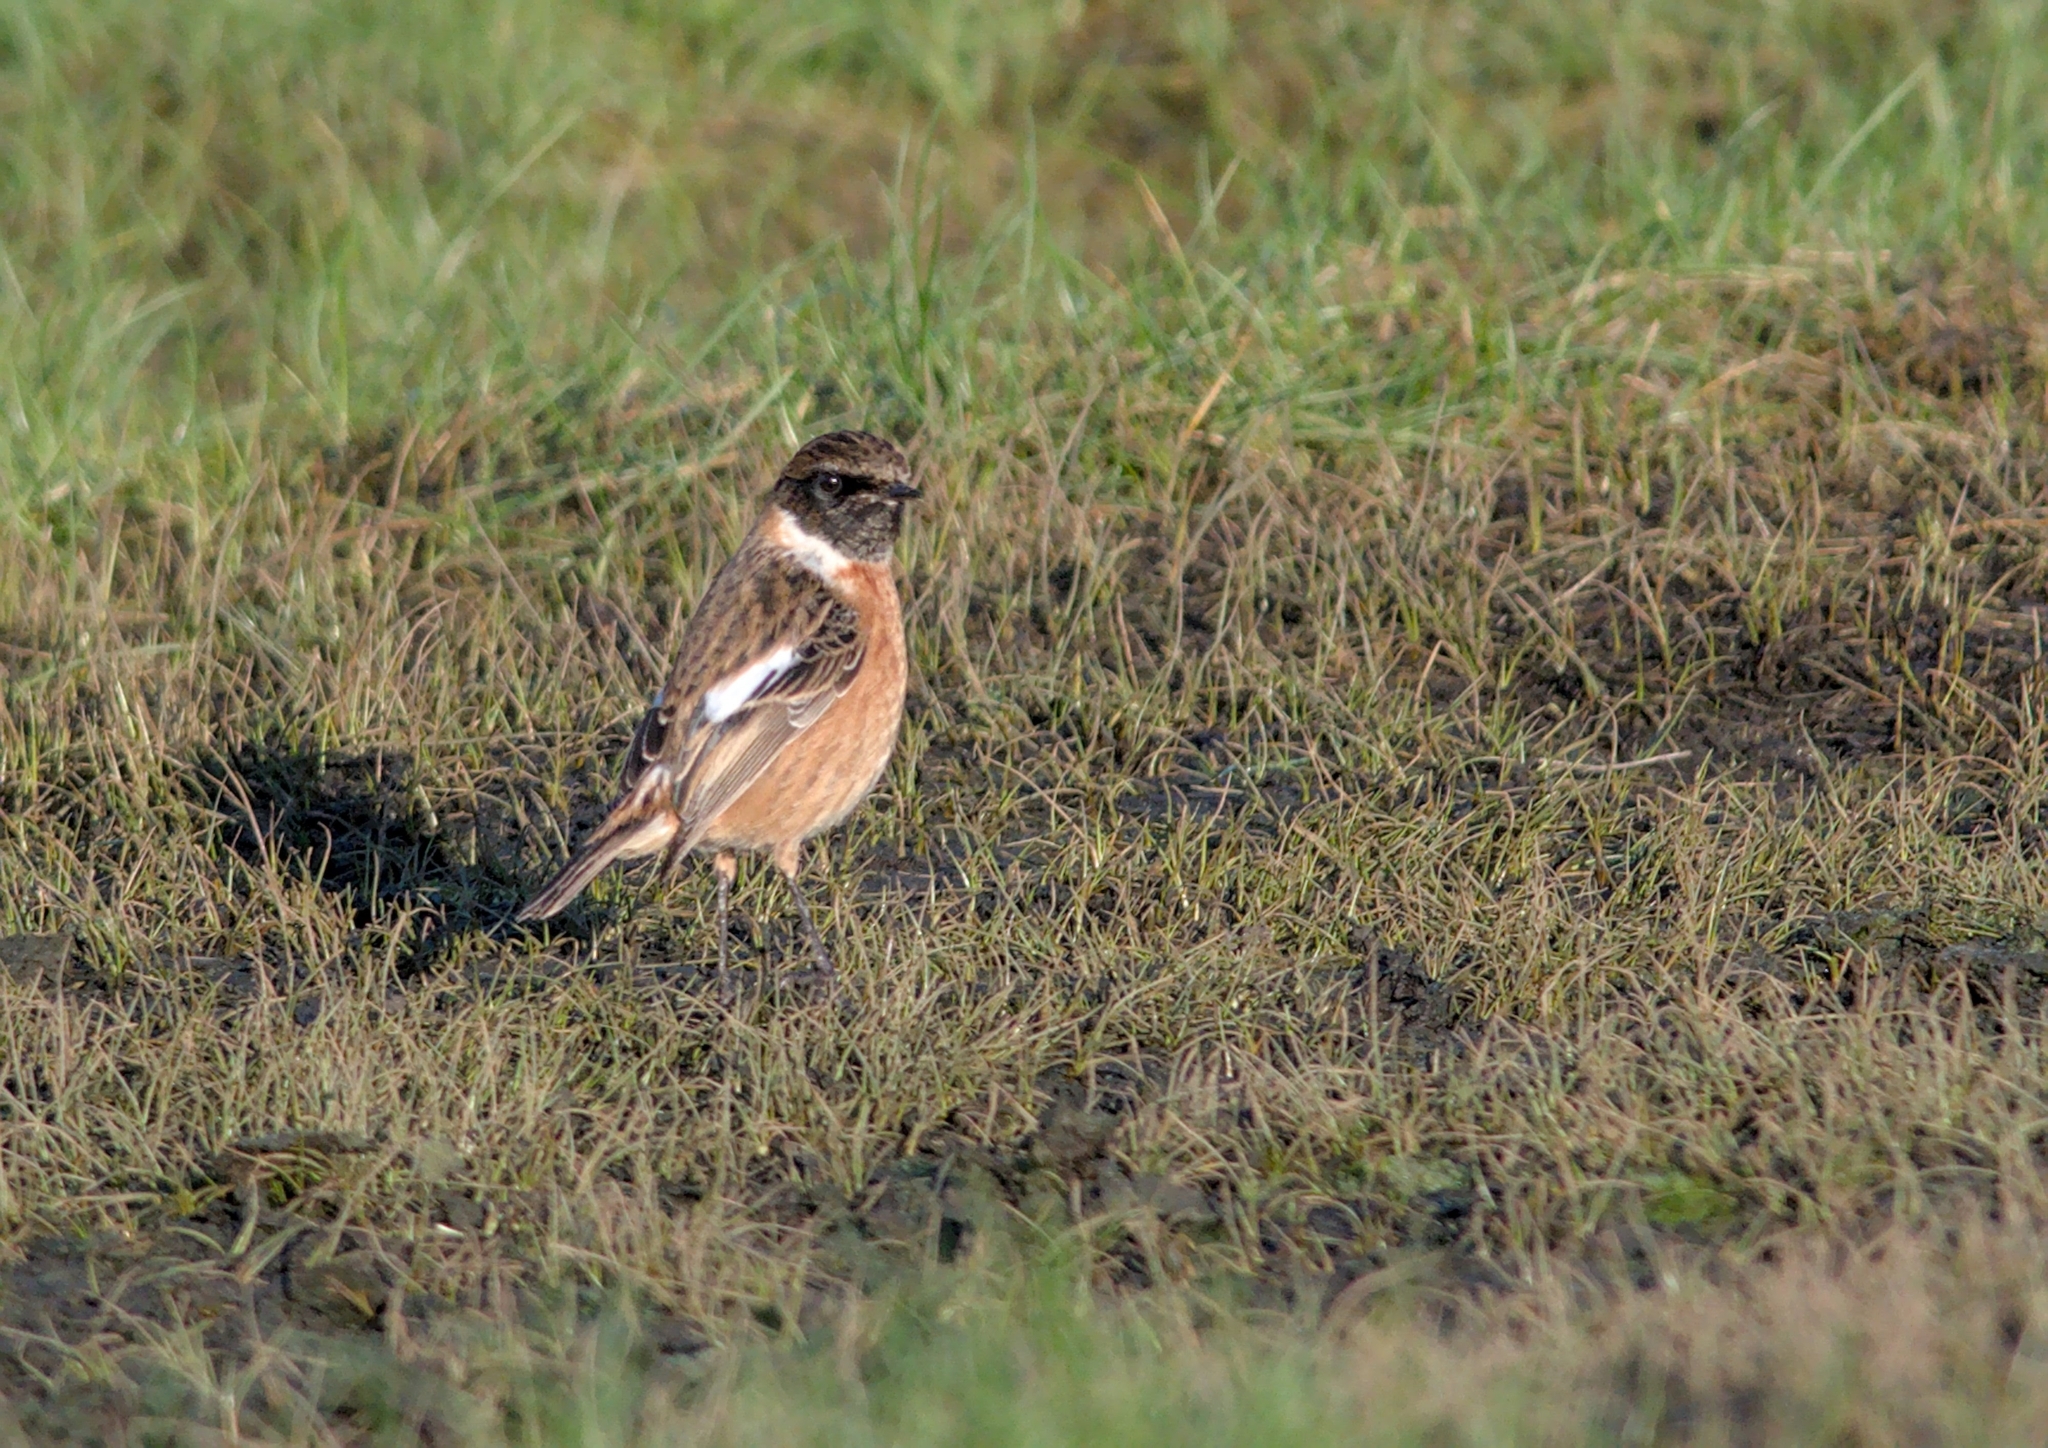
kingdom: Animalia
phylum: Chordata
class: Aves
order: Passeriformes
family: Muscicapidae
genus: Saxicola
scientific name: Saxicola rubicola
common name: European stonechat
